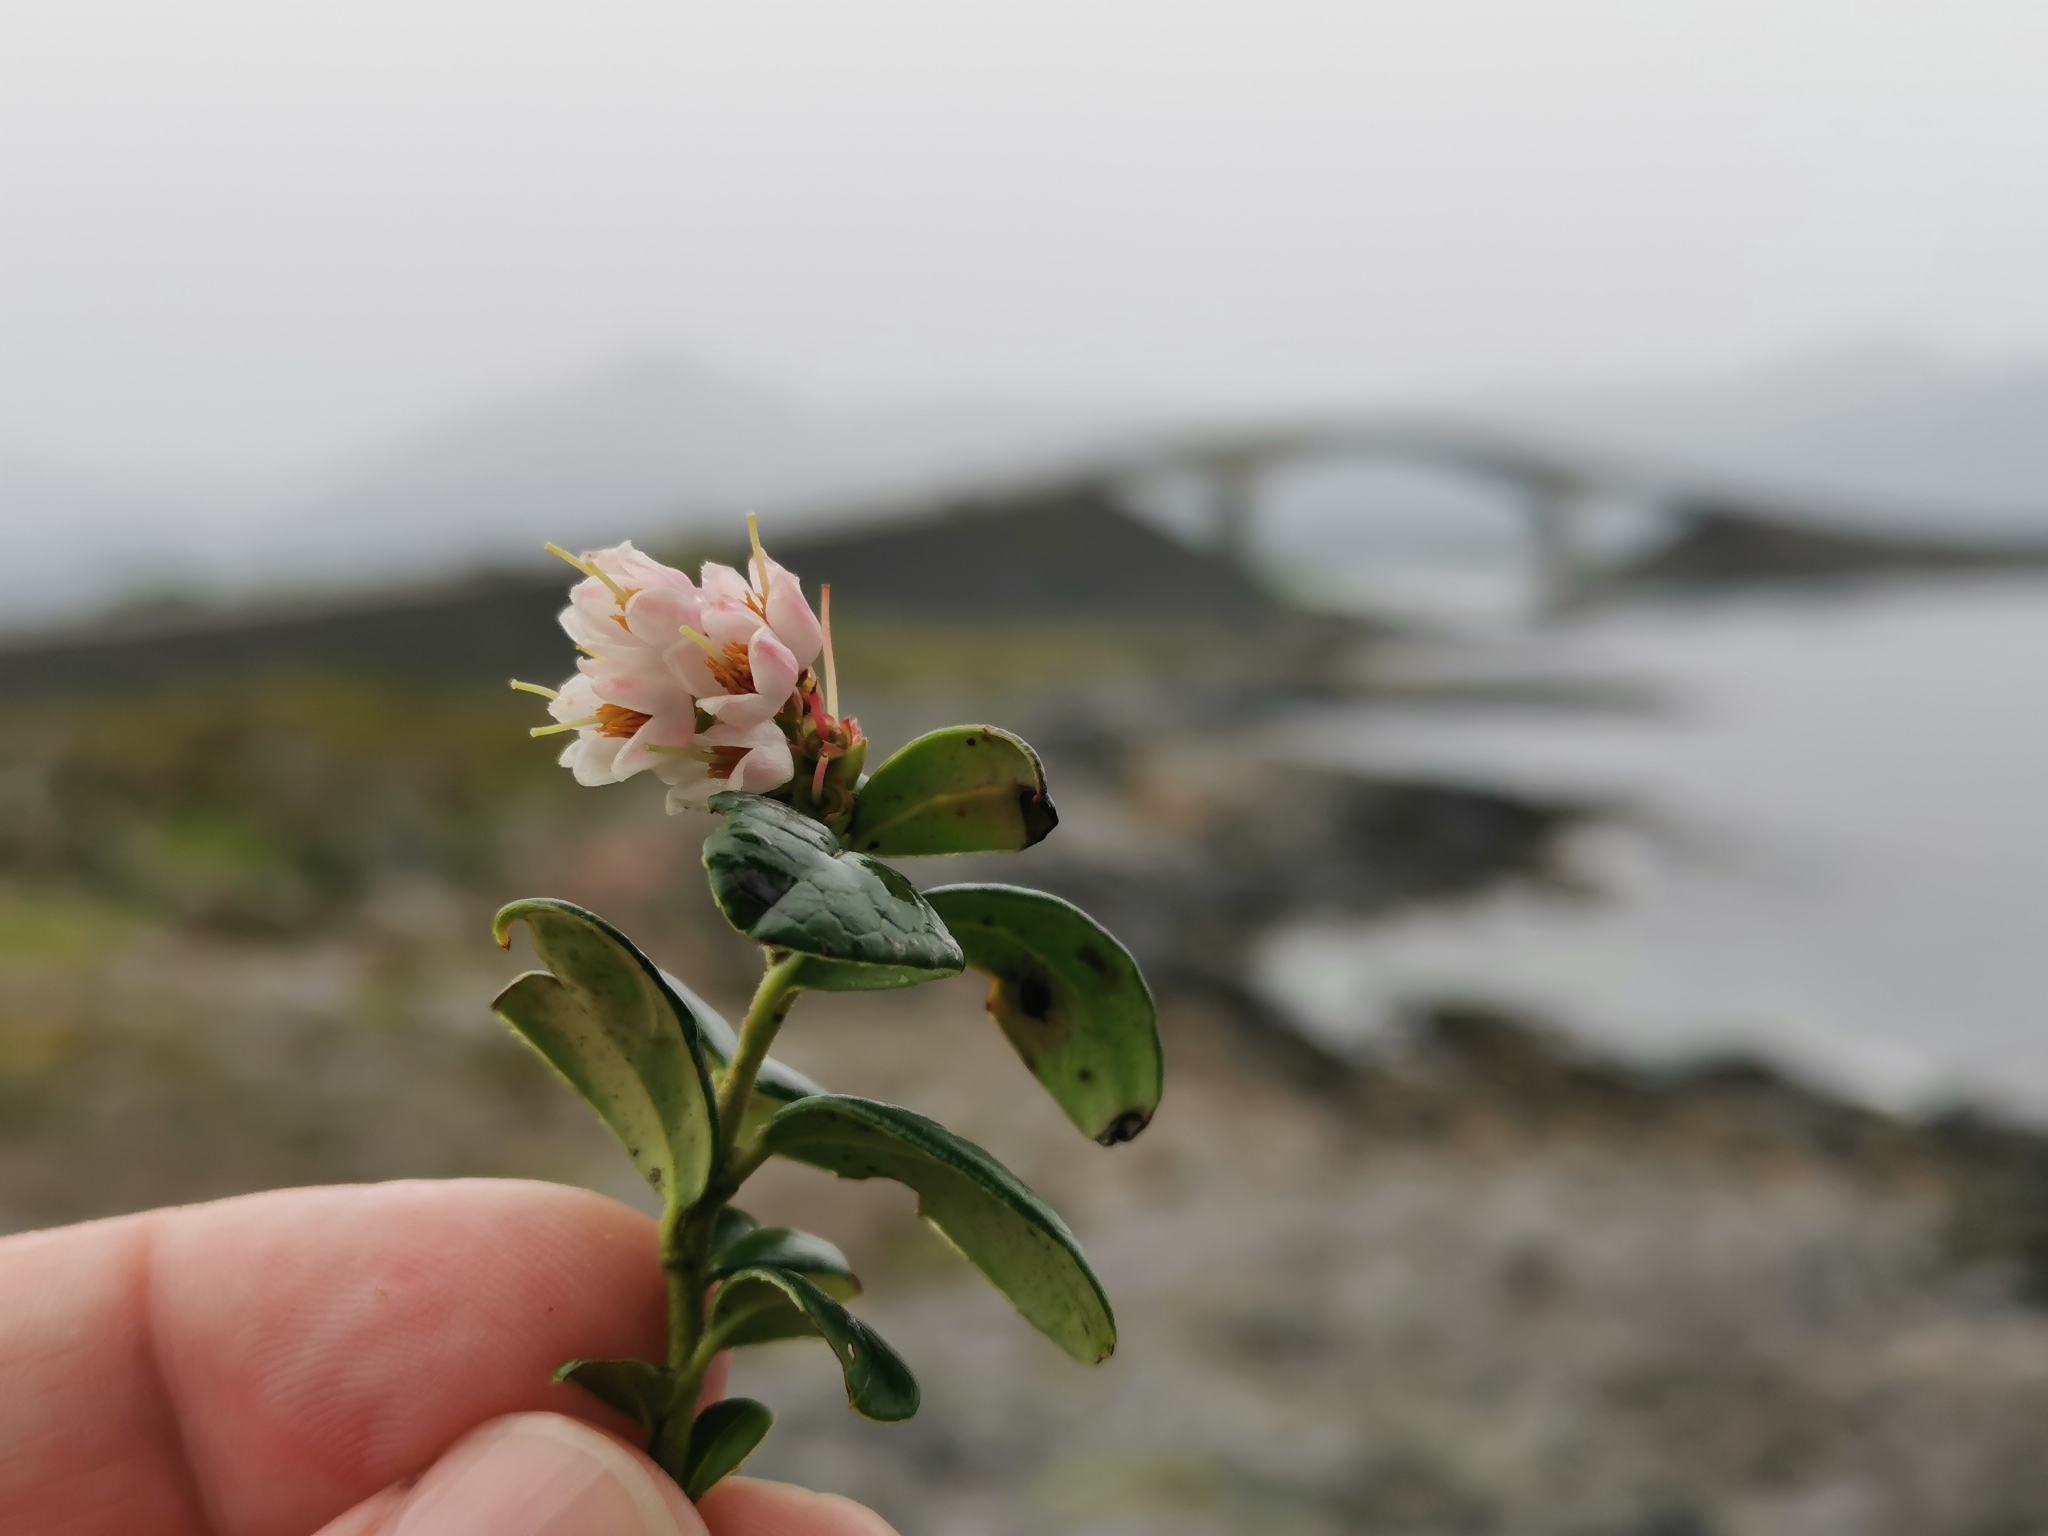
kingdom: Plantae
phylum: Tracheophyta
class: Magnoliopsida
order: Ericales
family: Ericaceae
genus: Vaccinium
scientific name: Vaccinium vitis-idaea
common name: Cowberry
